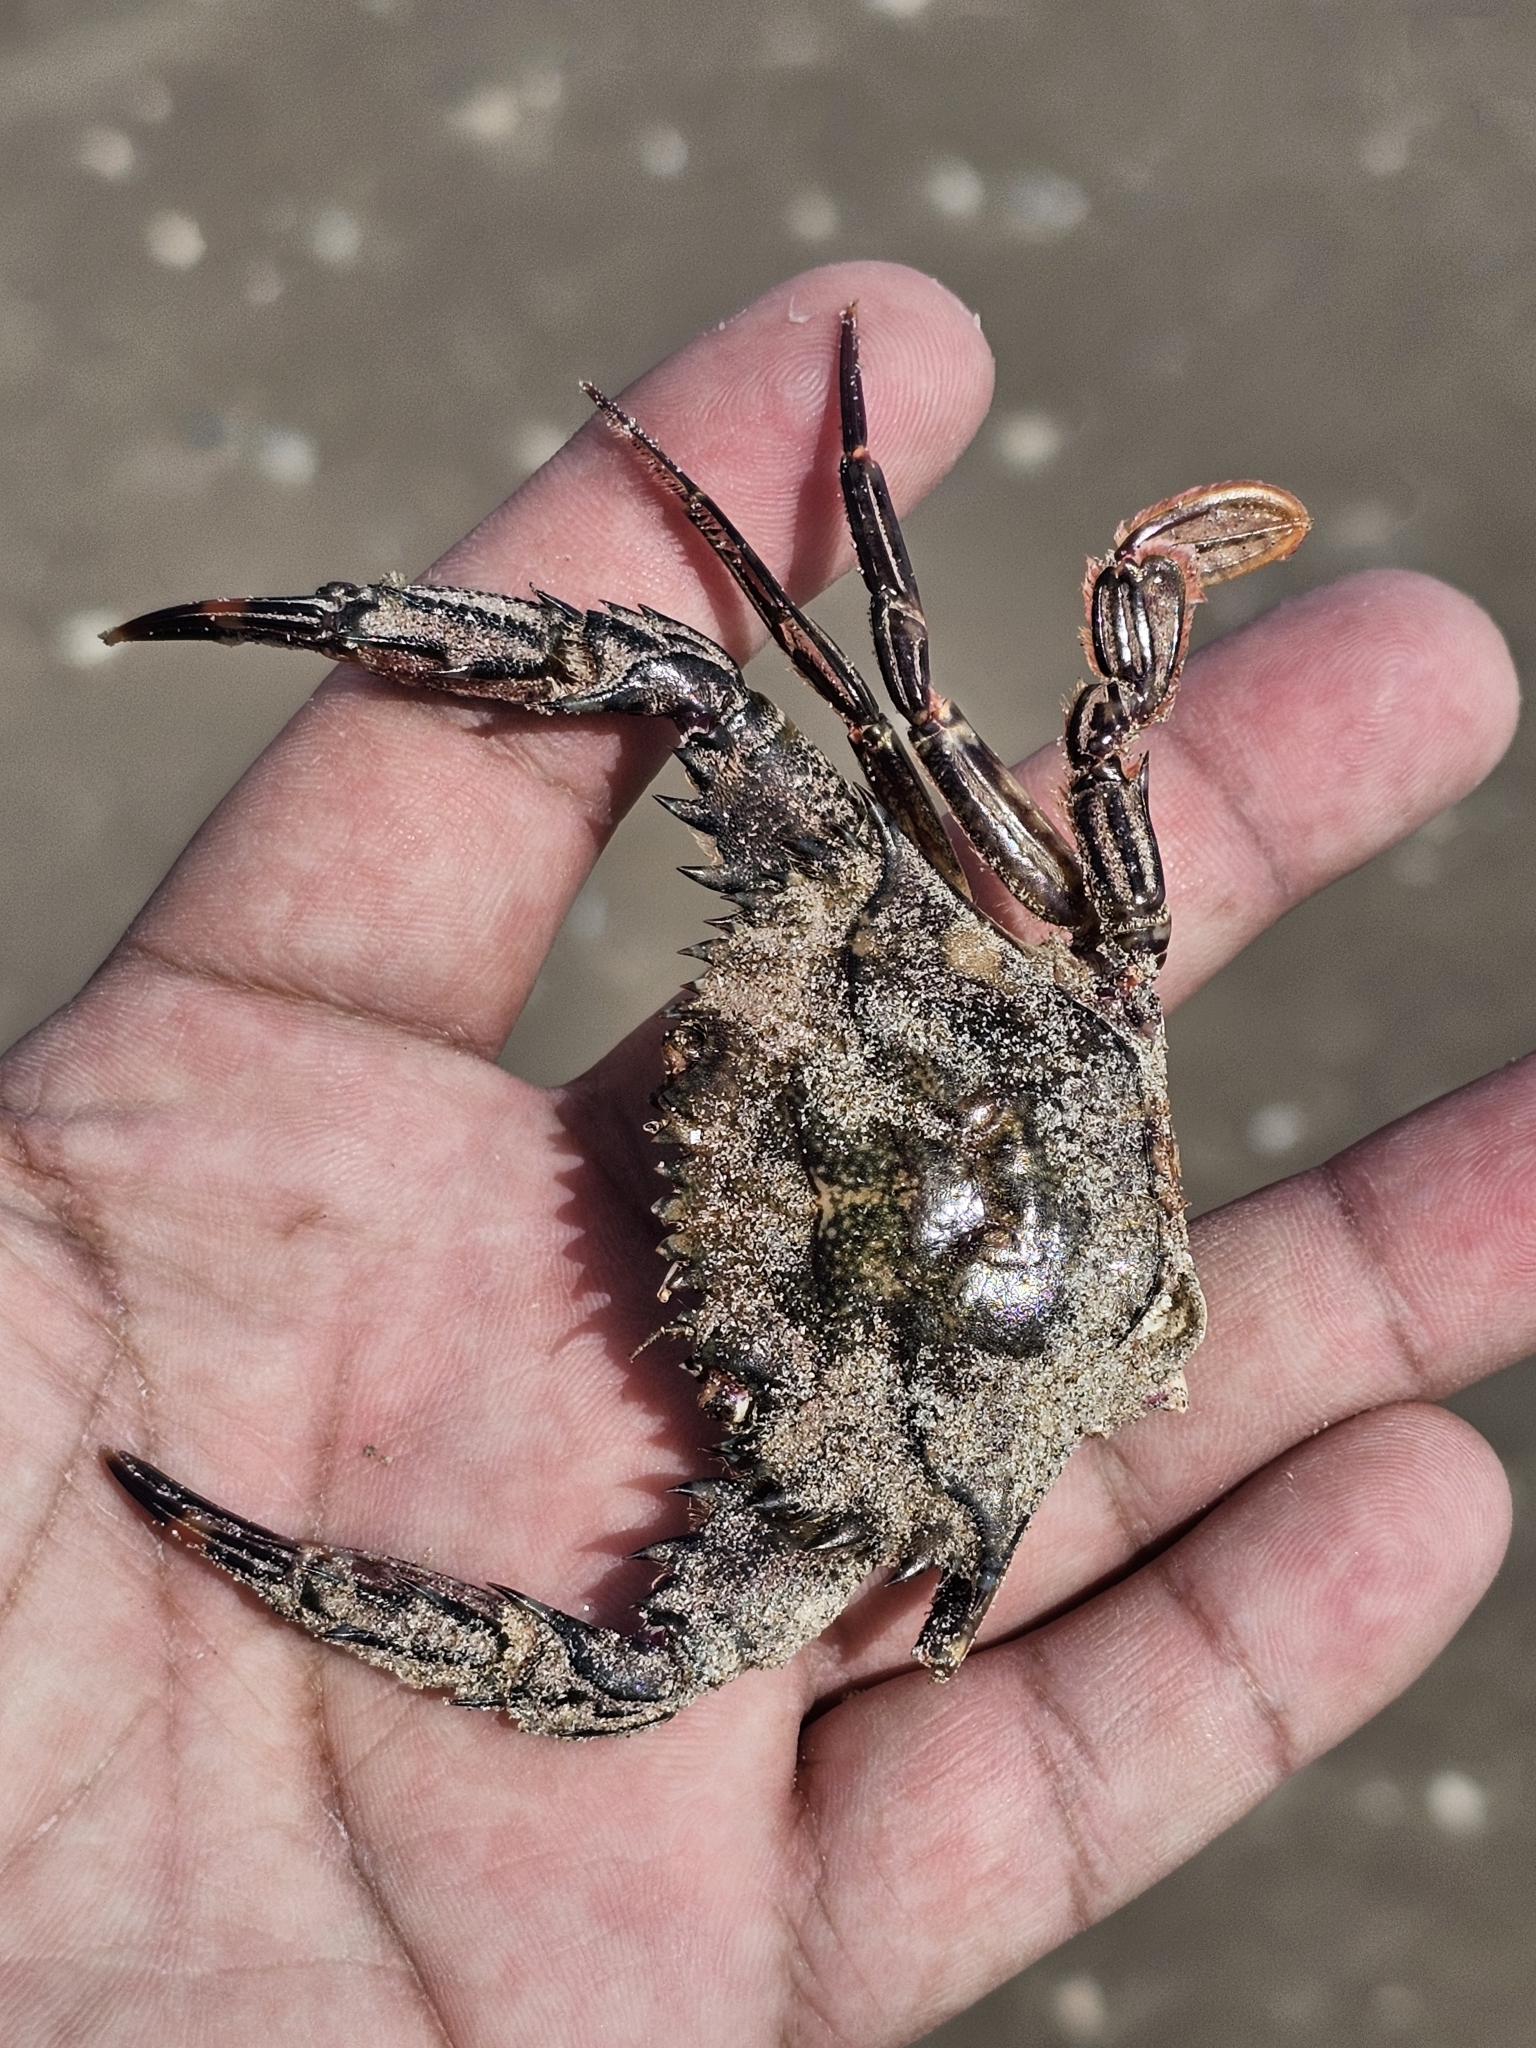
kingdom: Animalia
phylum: Arthropoda
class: Malacostraca
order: Decapoda
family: Portunidae
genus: Cronius
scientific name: Cronius ruber
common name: Red crab
